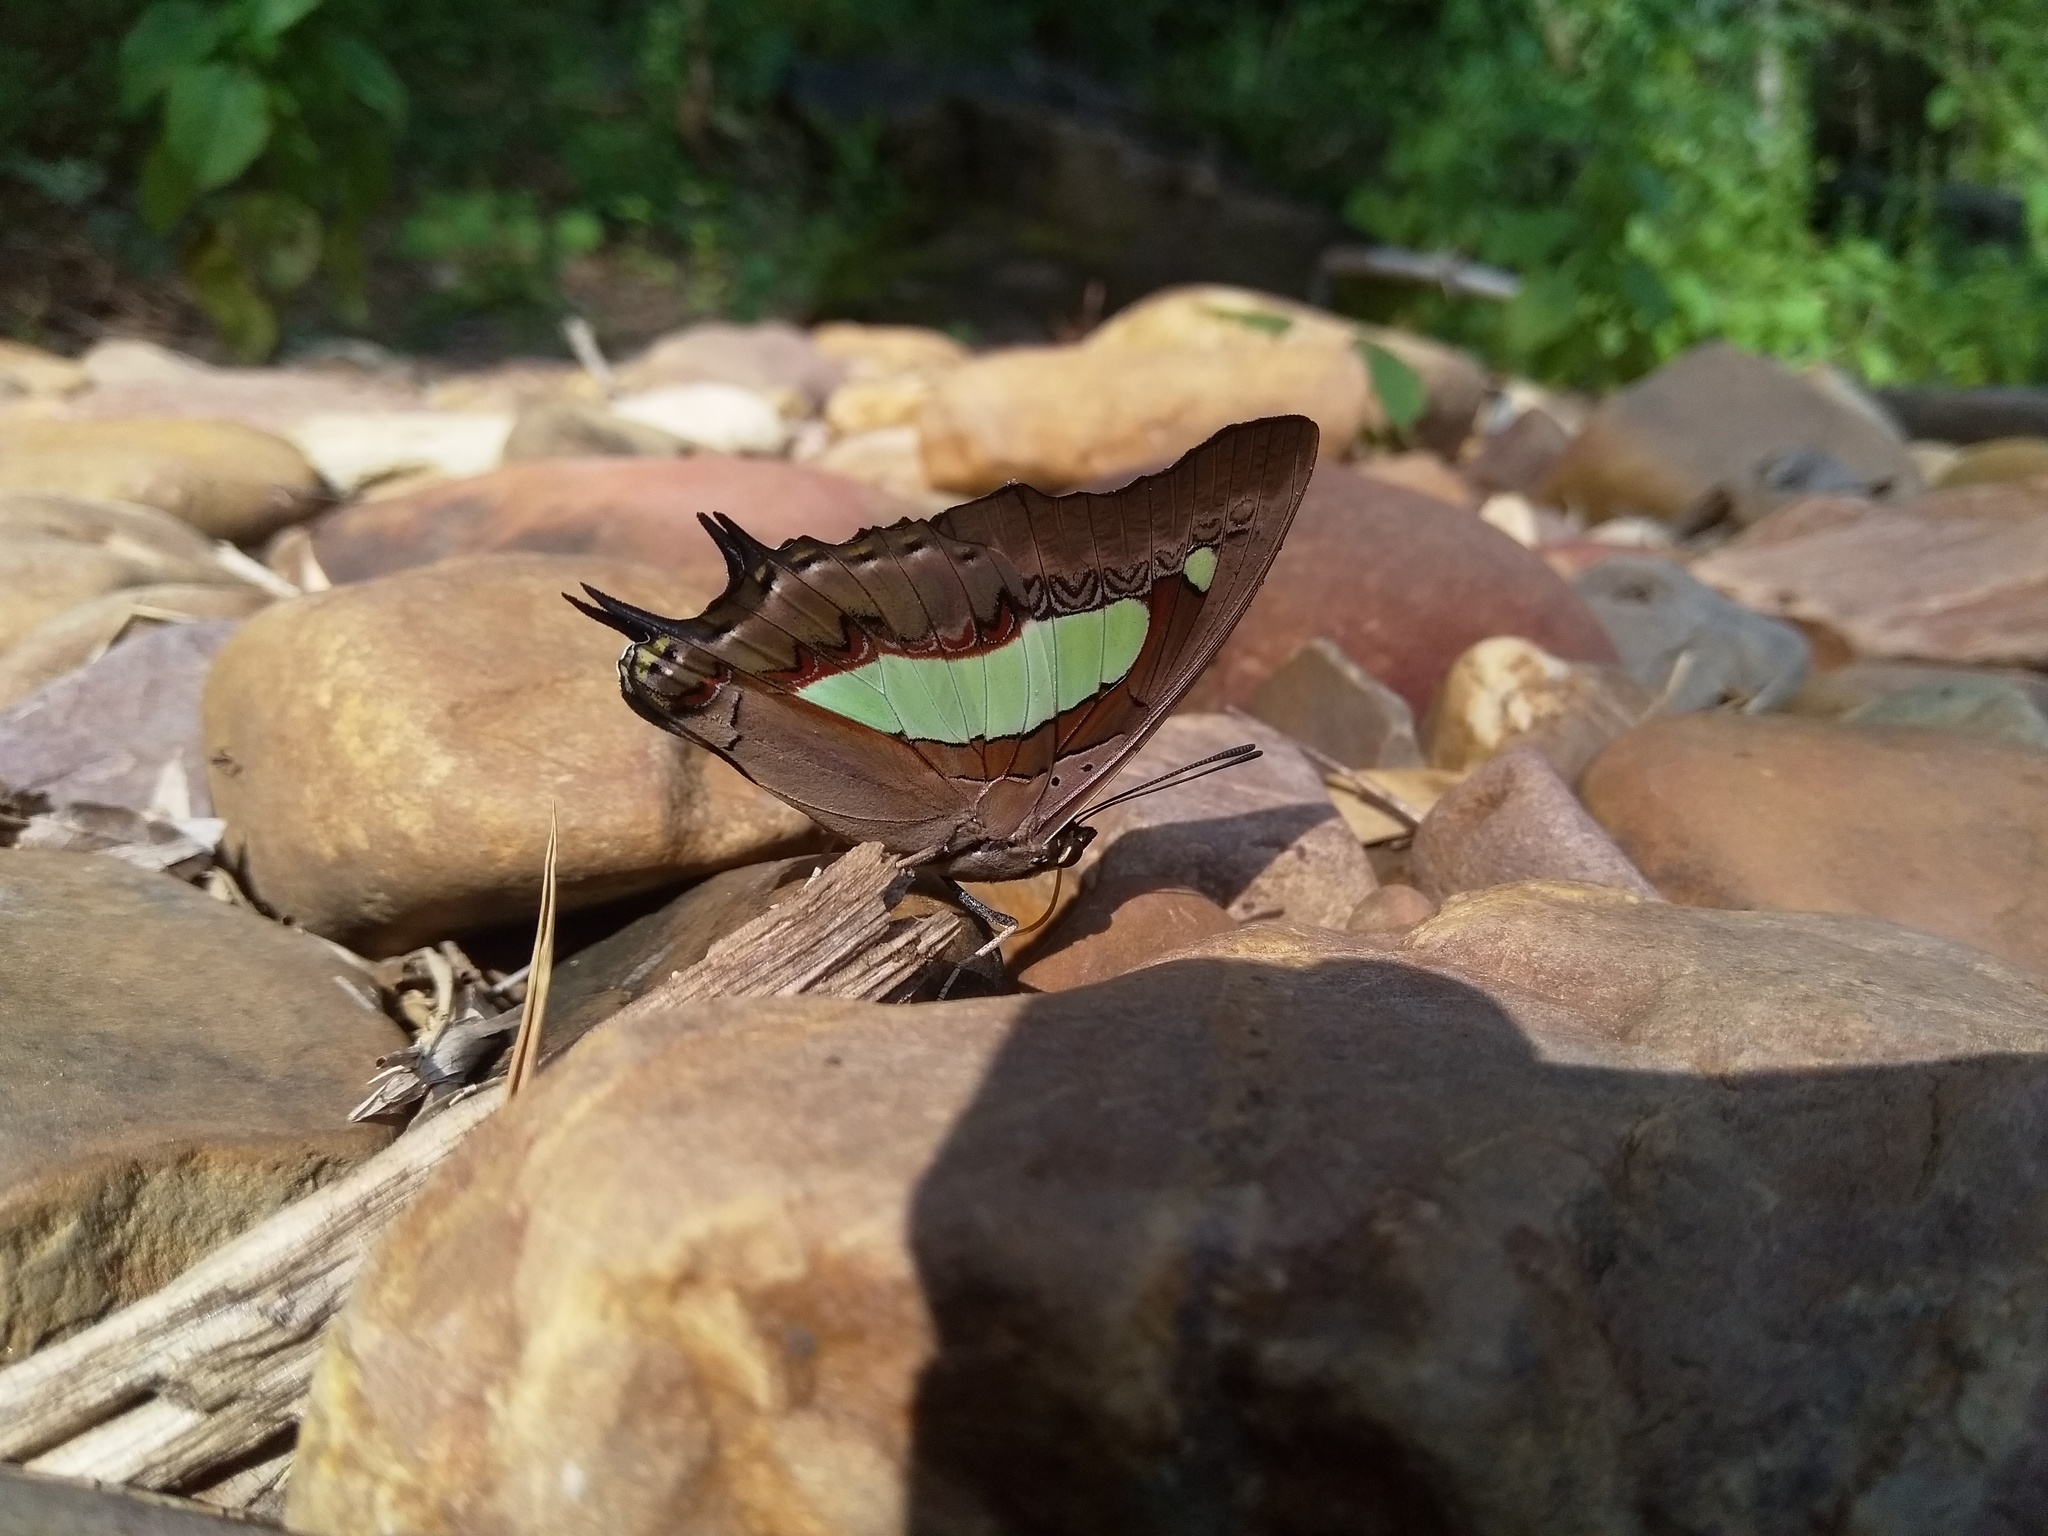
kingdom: Animalia
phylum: Arthropoda
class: Insecta
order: Lepidoptera
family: Nymphalidae
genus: Polyura
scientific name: Polyura
